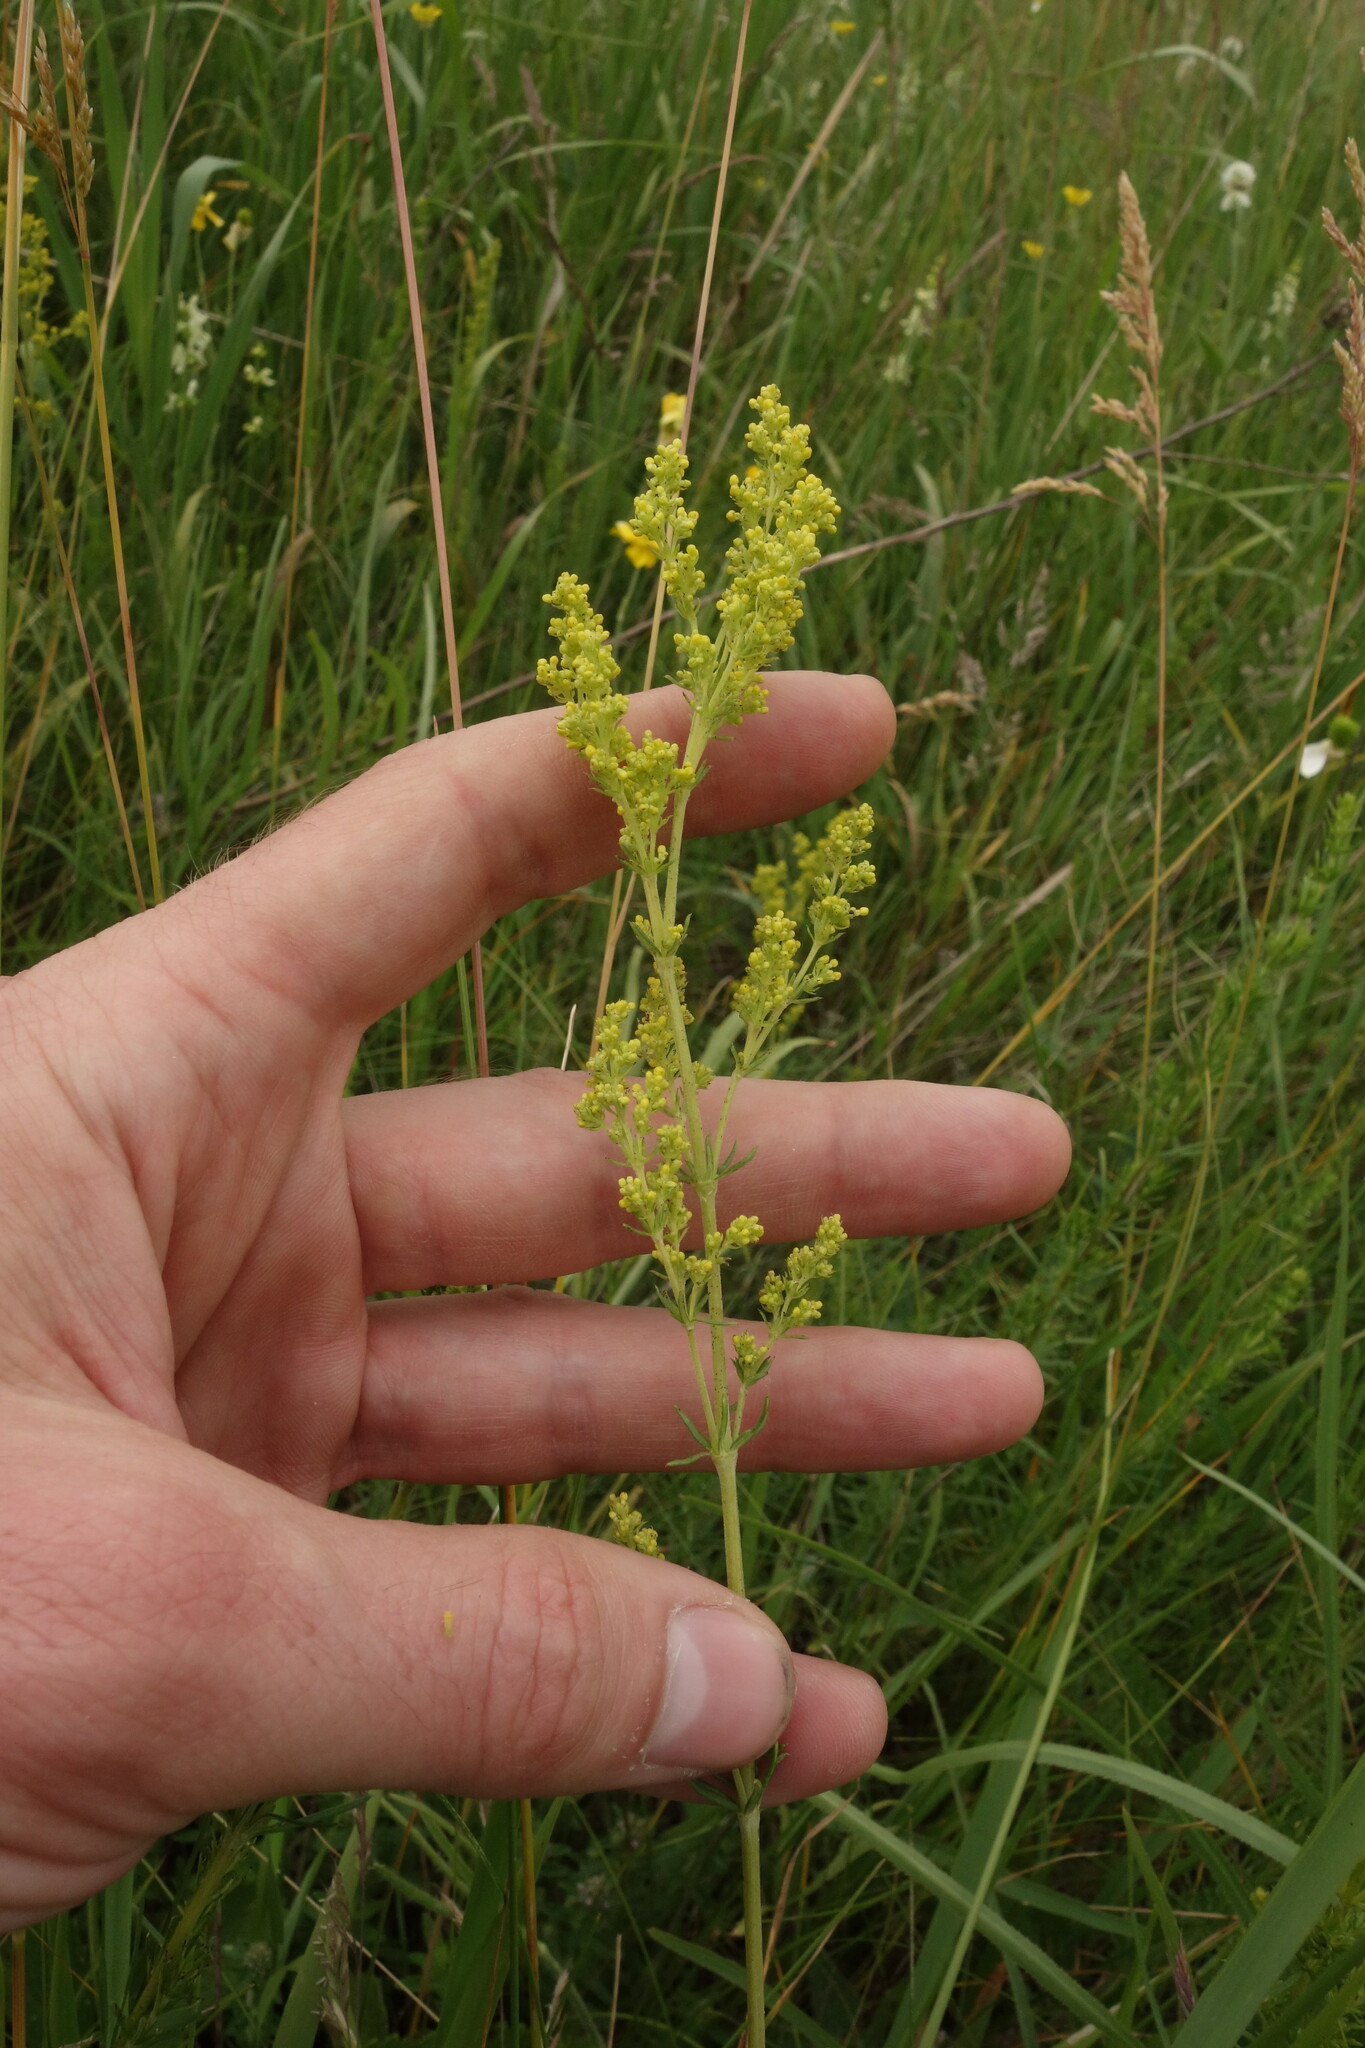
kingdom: Plantae
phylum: Tracheophyta
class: Magnoliopsida
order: Gentianales
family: Rubiaceae
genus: Galium
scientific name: Galium verum
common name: Lady's bedstraw
